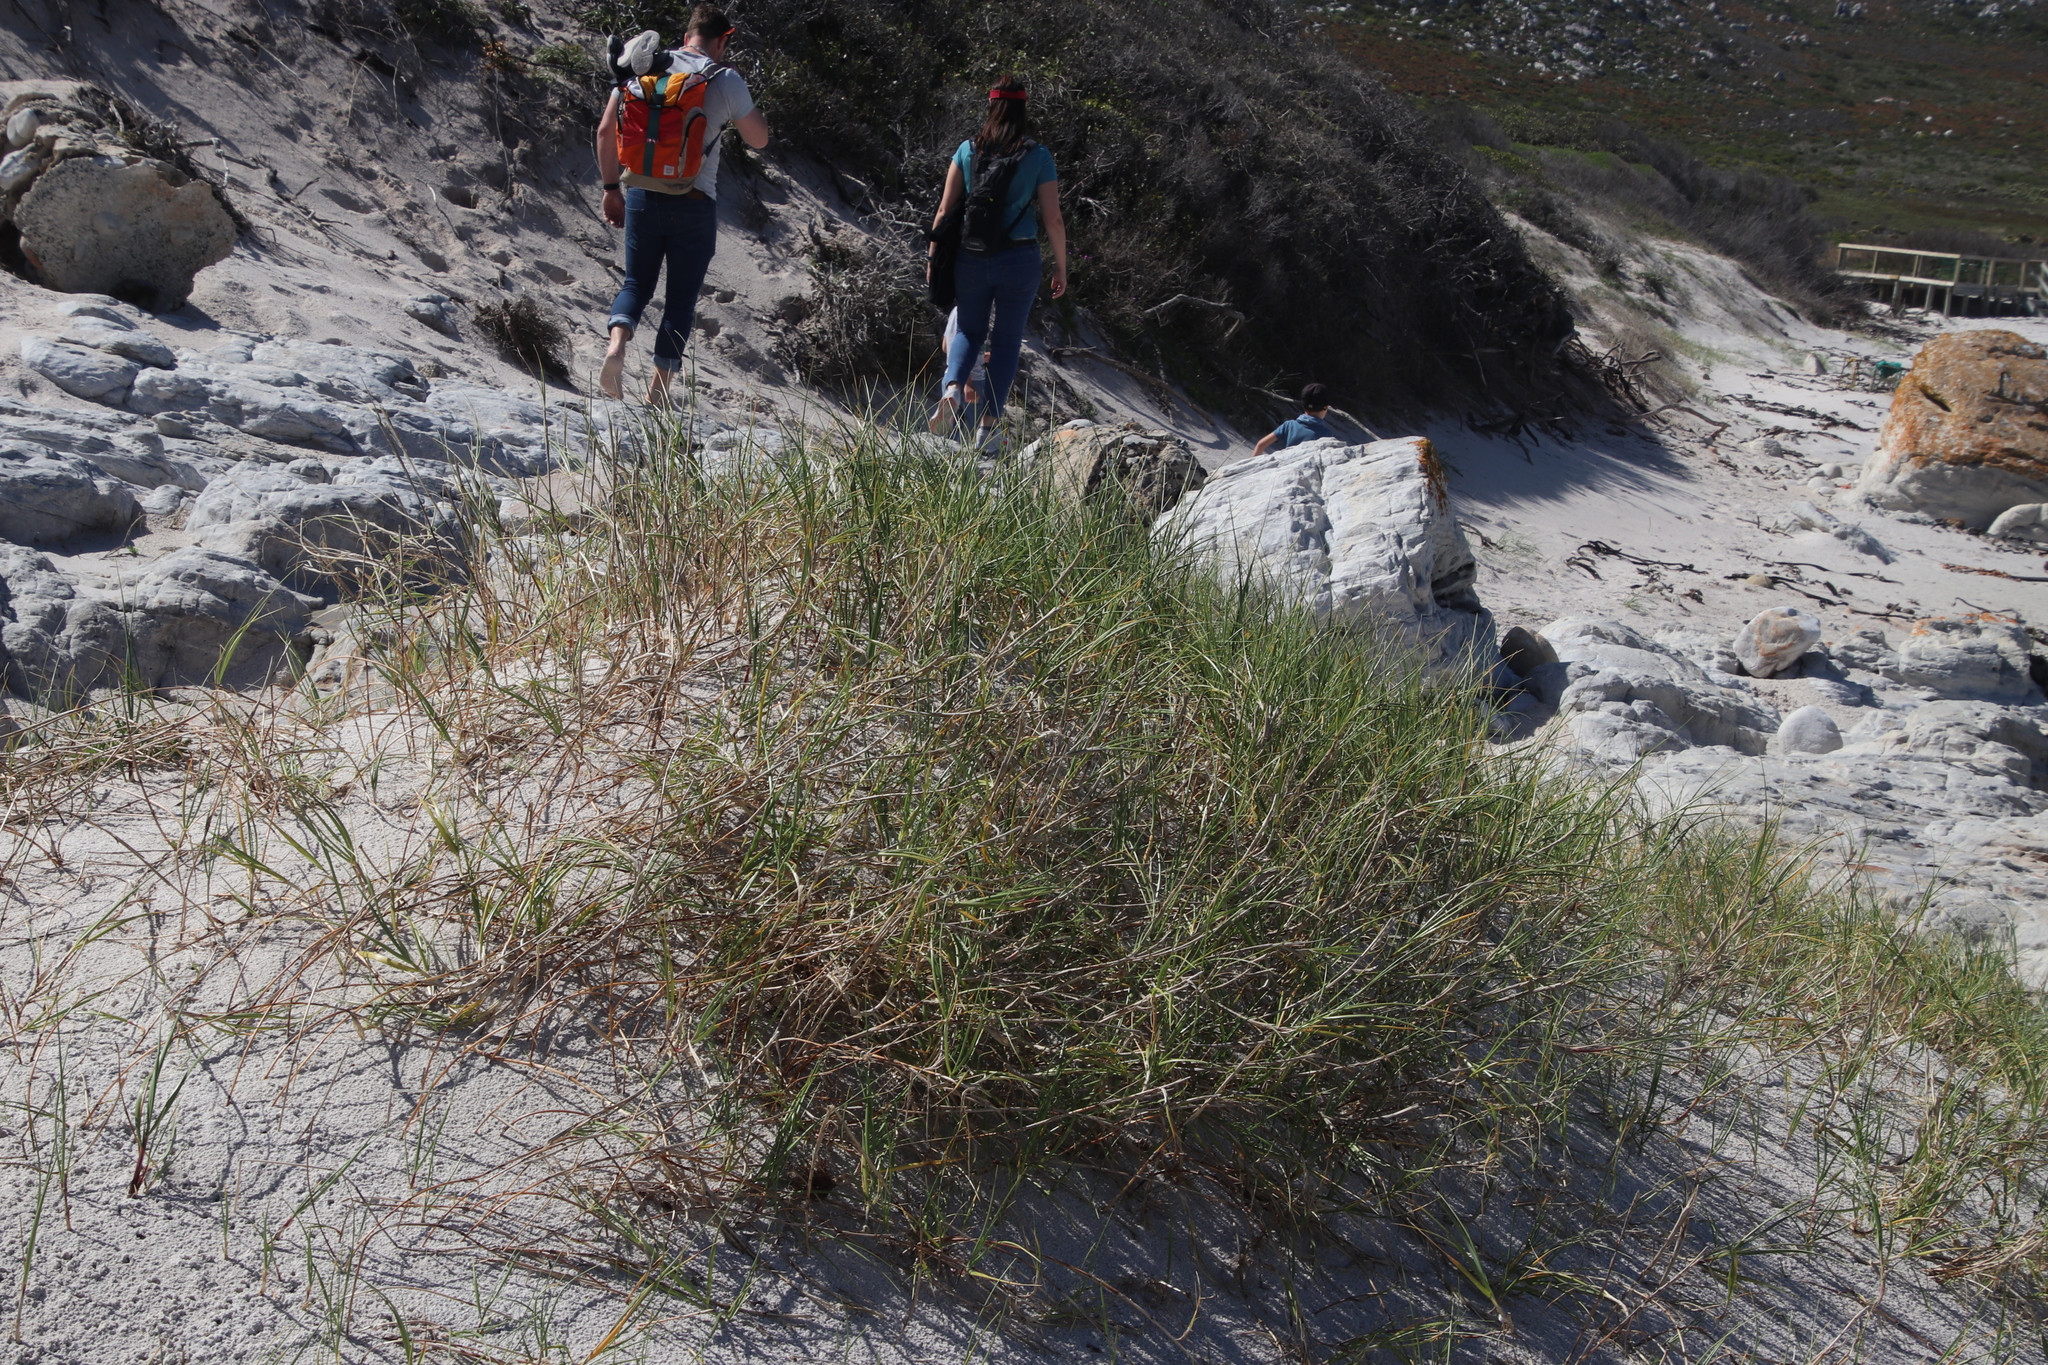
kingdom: Plantae
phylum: Tracheophyta
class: Liliopsida
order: Poales
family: Poaceae
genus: Thinopyrum
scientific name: Thinopyrum distichum
